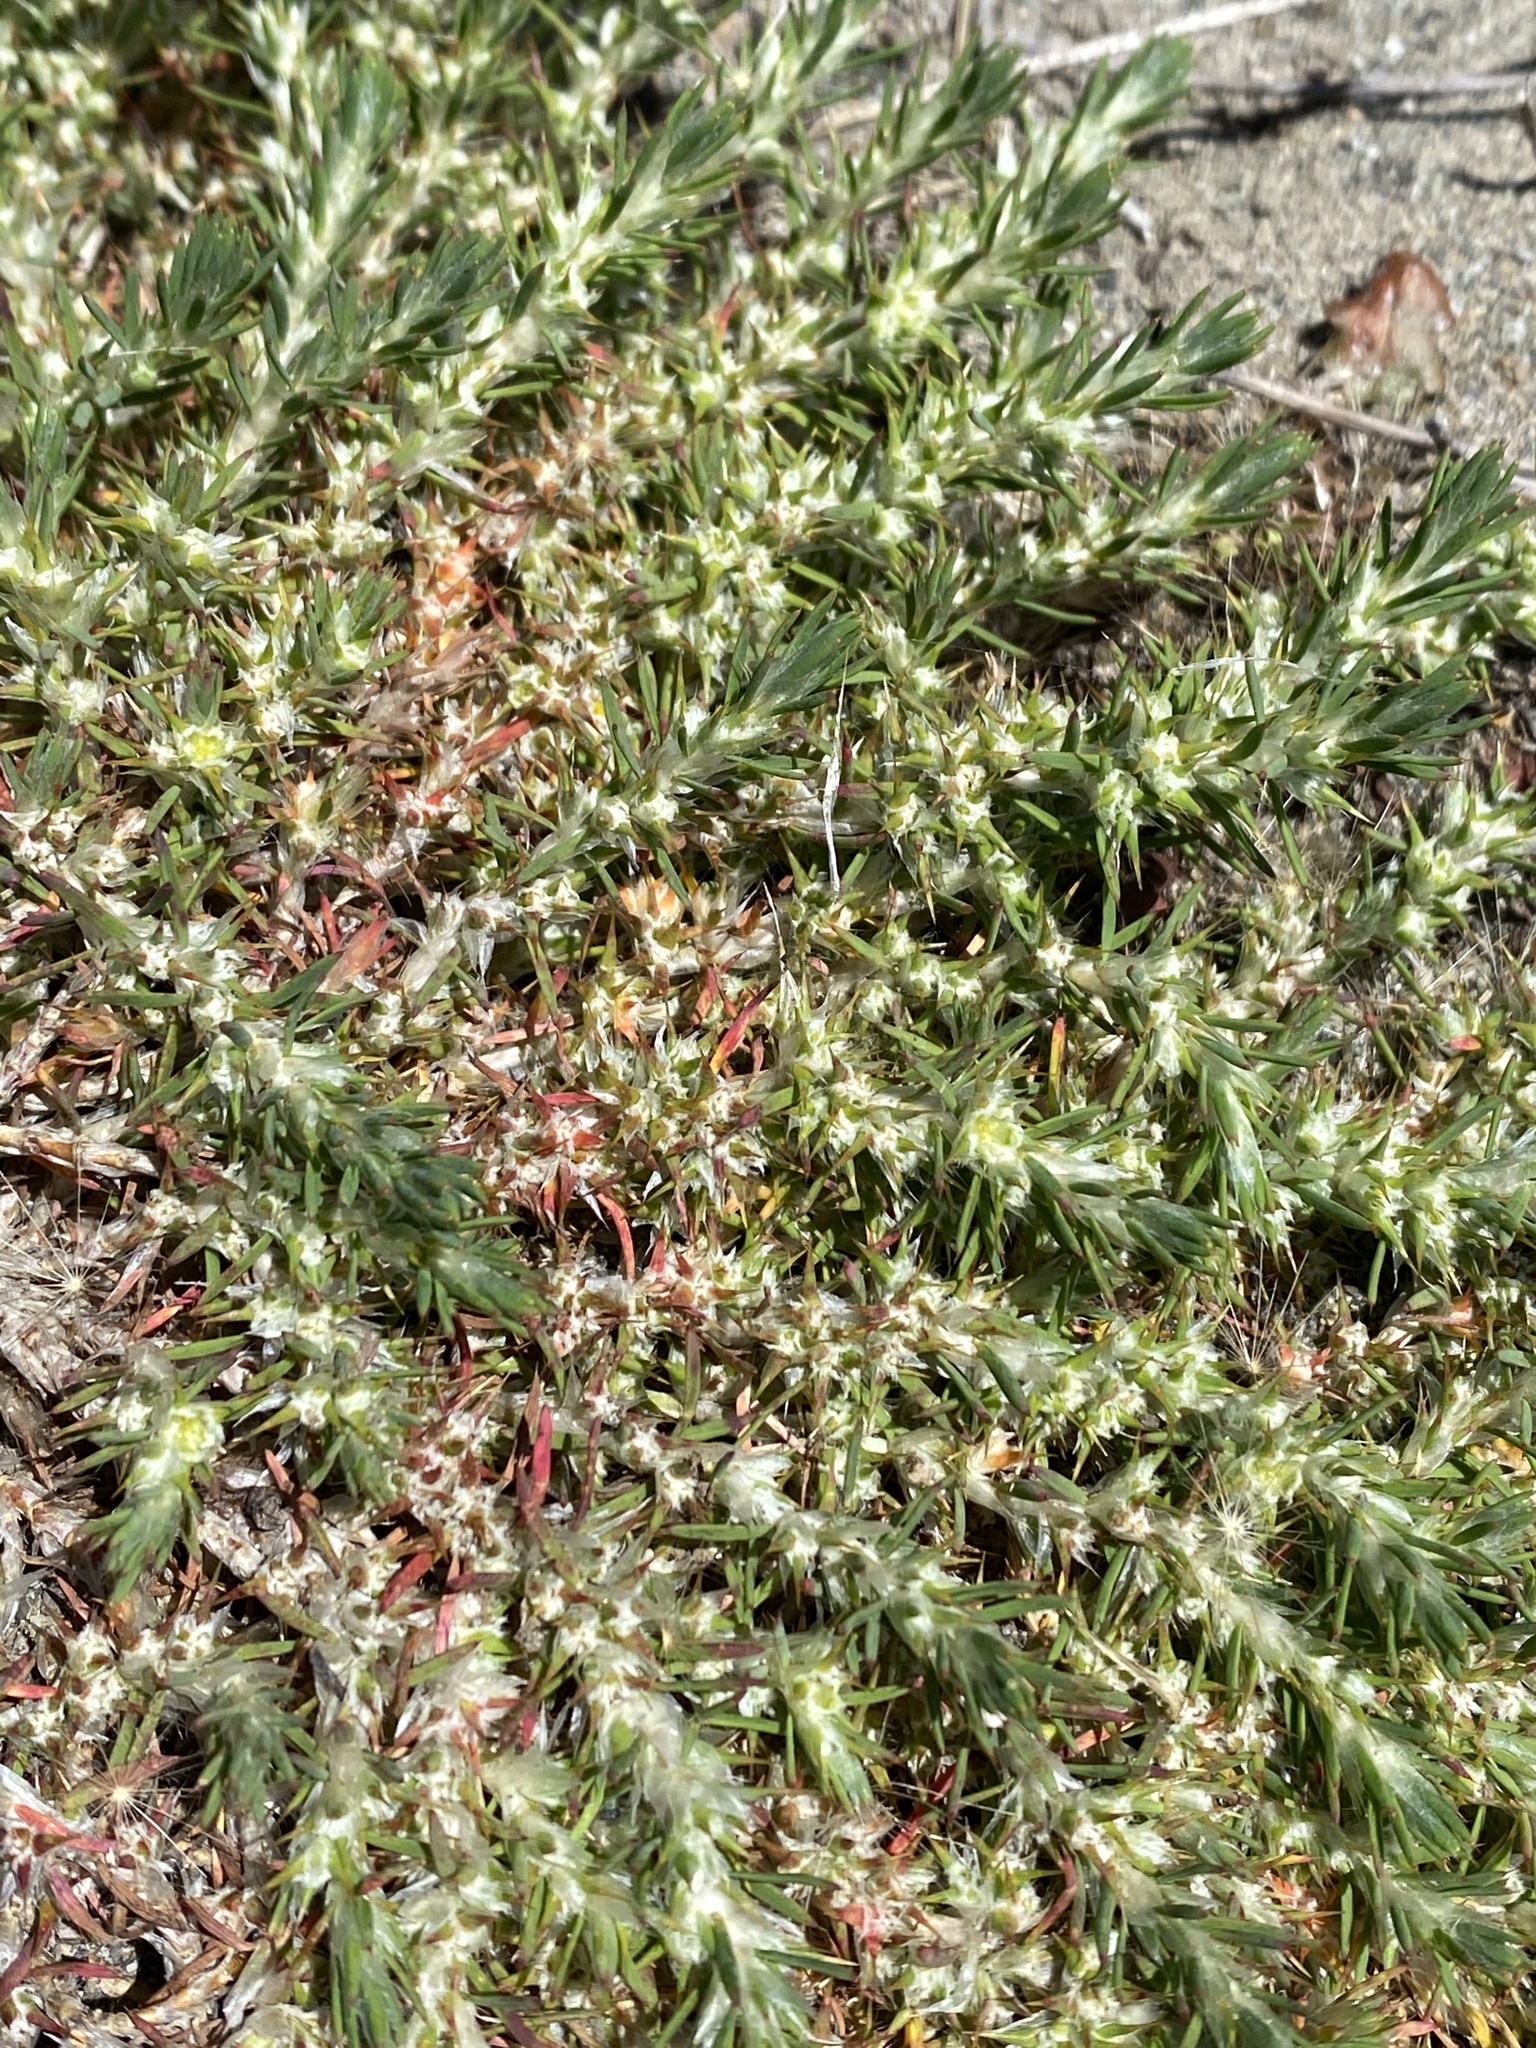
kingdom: Plantae
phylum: Tracheophyta
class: Magnoliopsida
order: Caryophyllales
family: Caryophyllaceae
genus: Cardionema
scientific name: Cardionema ramosissima
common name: Sandcarpet
